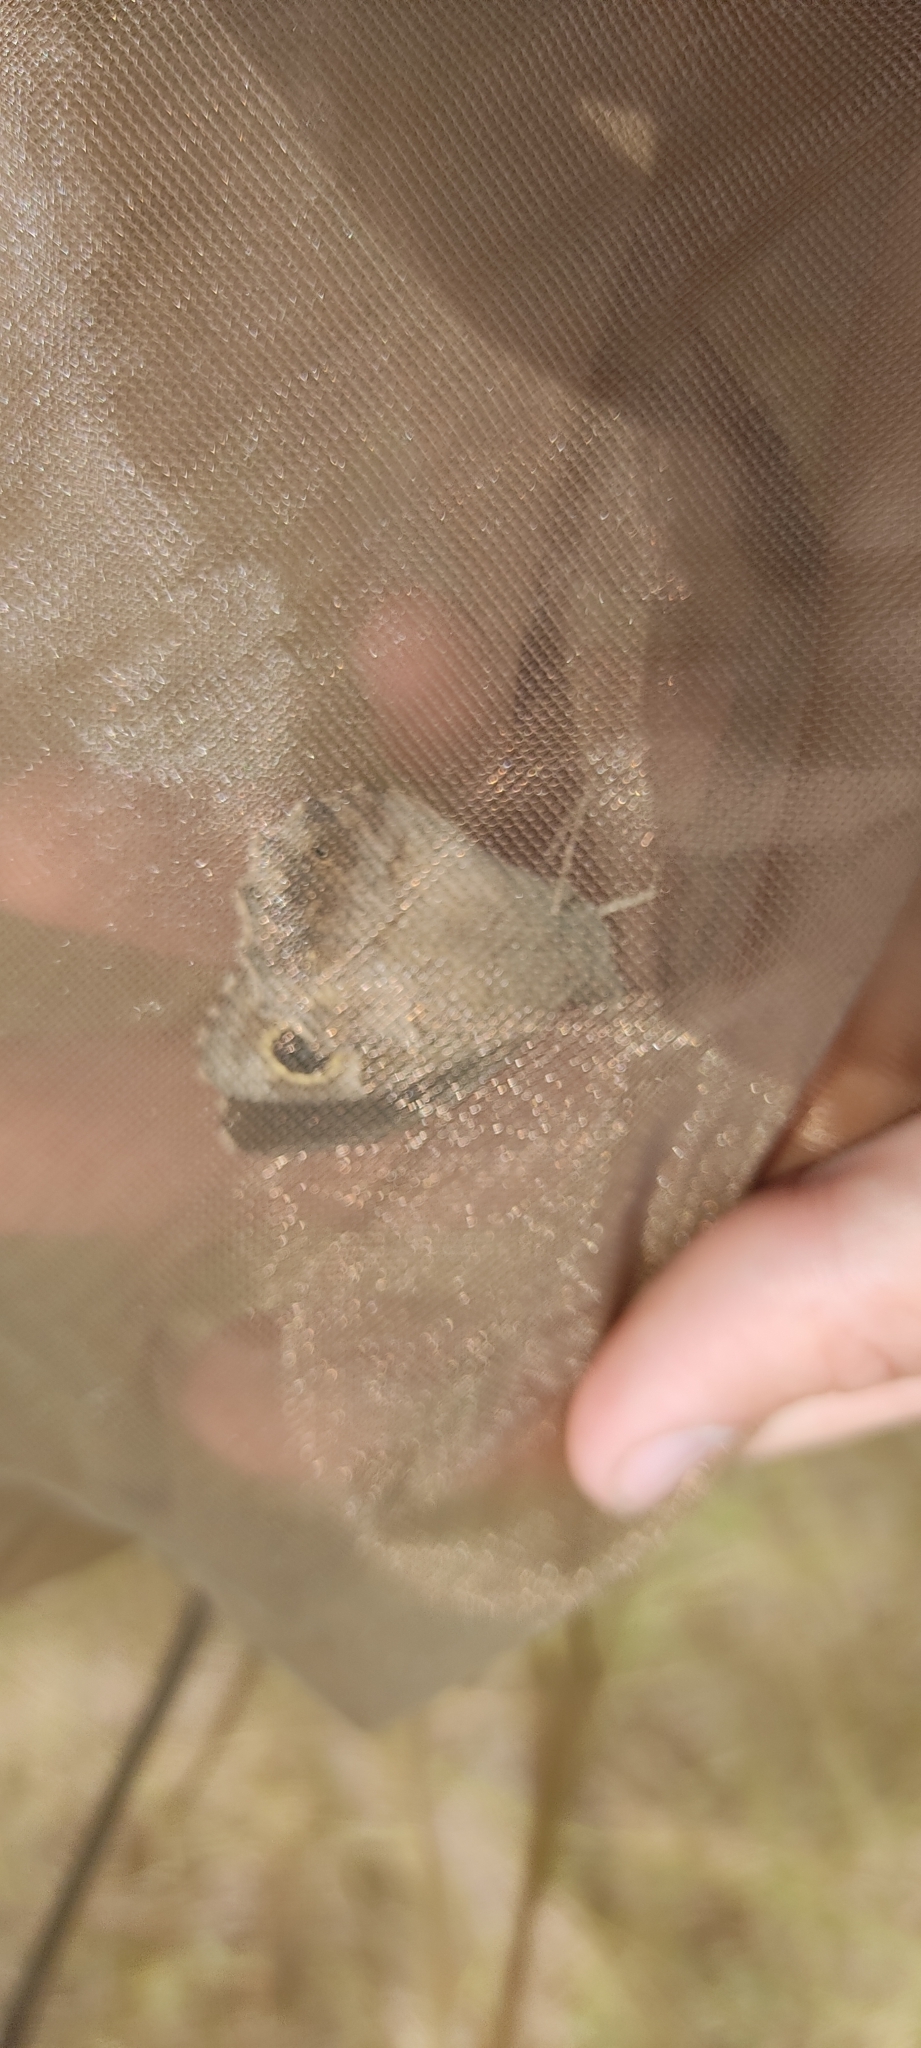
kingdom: Animalia
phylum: Arthropoda
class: Insecta
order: Lepidoptera
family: Nymphalidae
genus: Hipparchia
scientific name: Hipparchia statilinus
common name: Tree grayling
